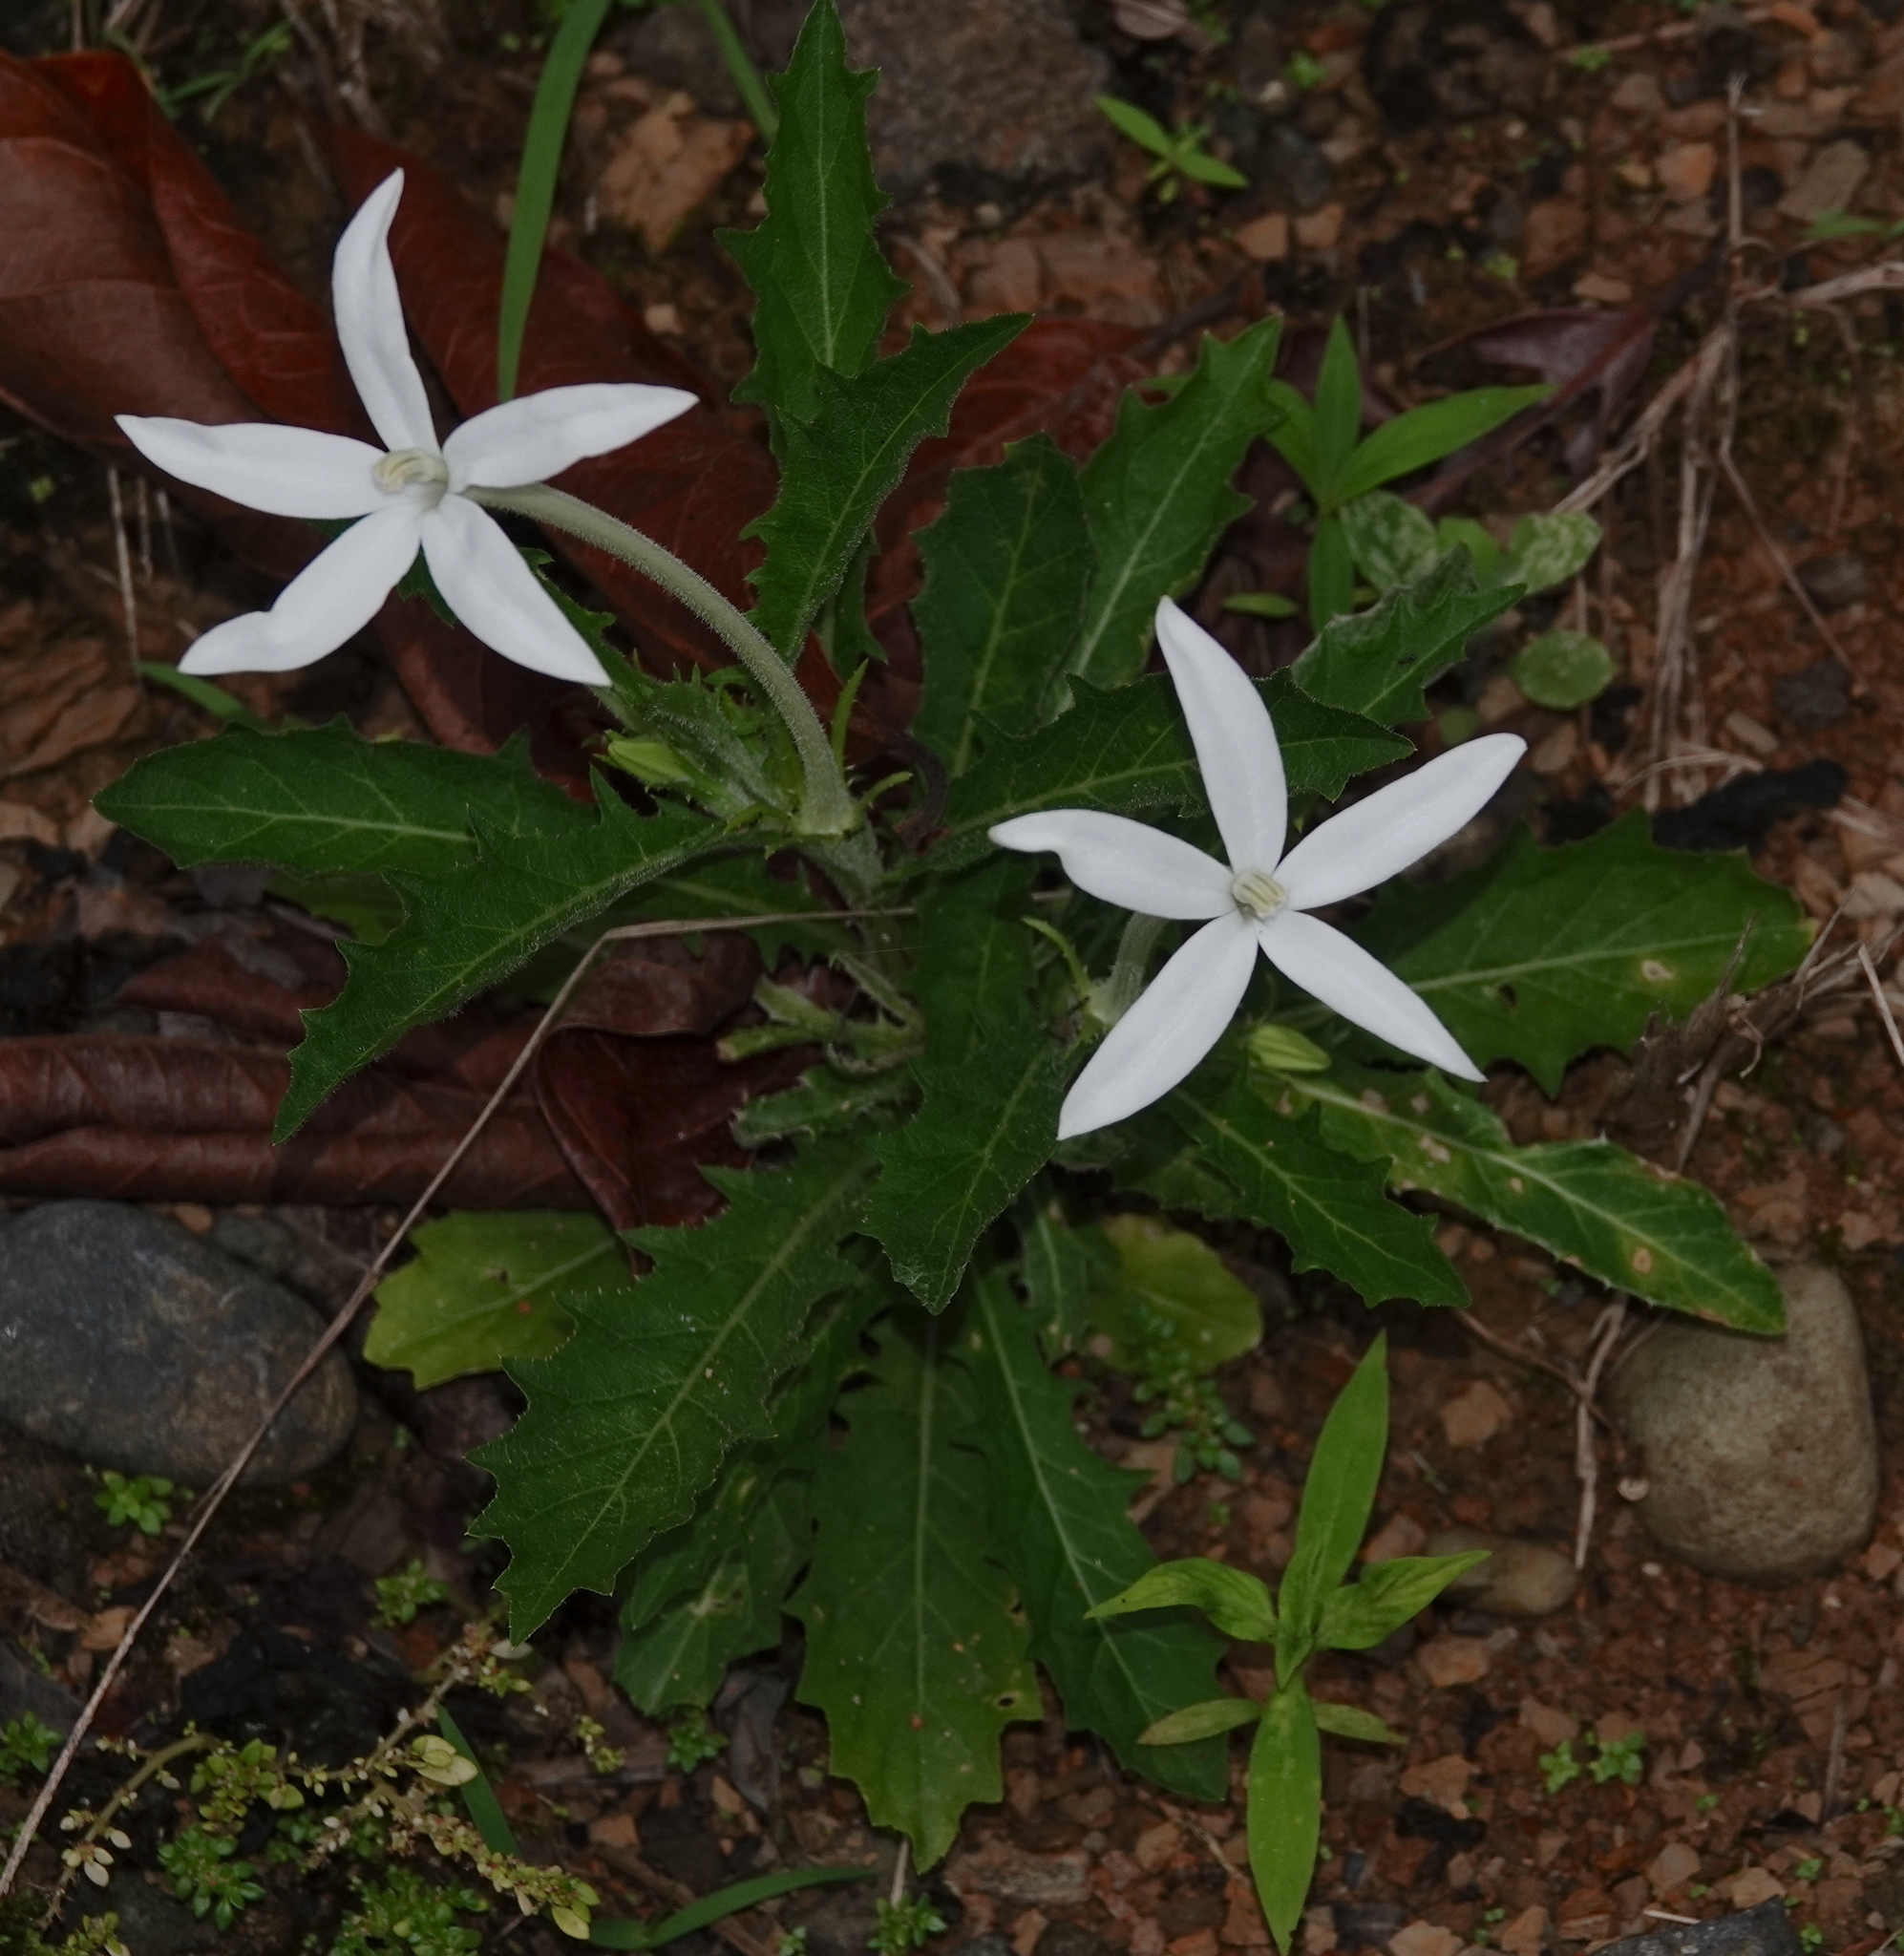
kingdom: Plantae
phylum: Tracheophyta
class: Magnoliopsida
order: Asterales
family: Campanulaceae
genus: Hippobroma
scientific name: Hippobroma longiflora
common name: Madamfate
